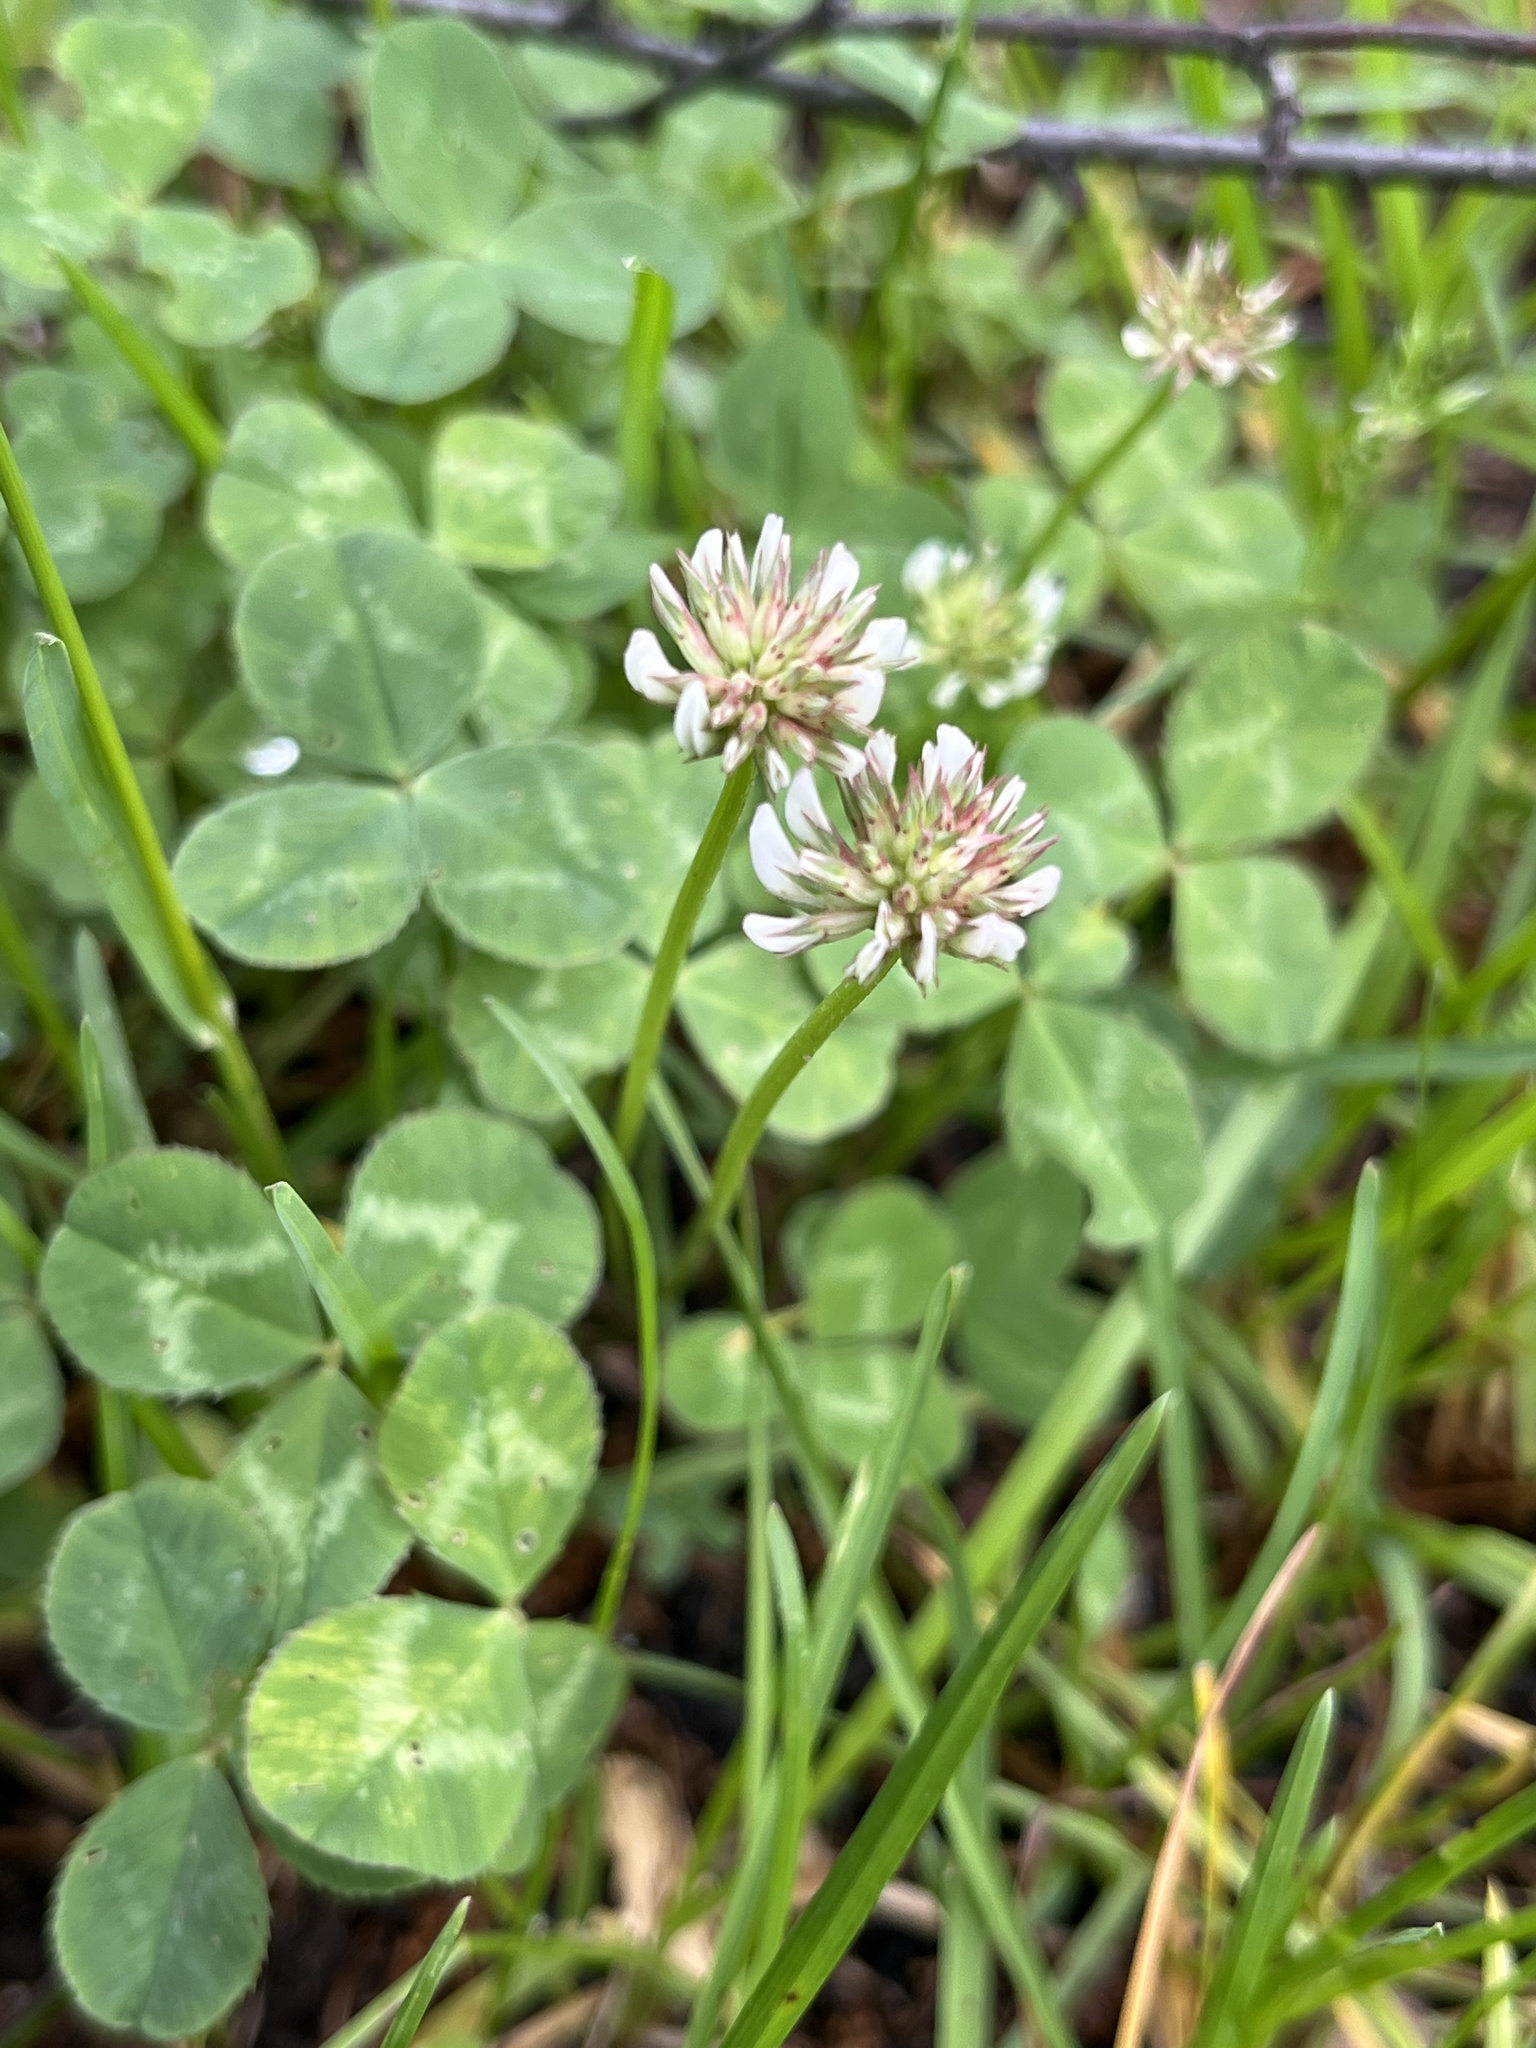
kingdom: Plantae
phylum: Tracheophyta
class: Magnoliopsida
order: Fabales
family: Fabaceae
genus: Trifolium
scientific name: Trifolium repens
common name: White clover
